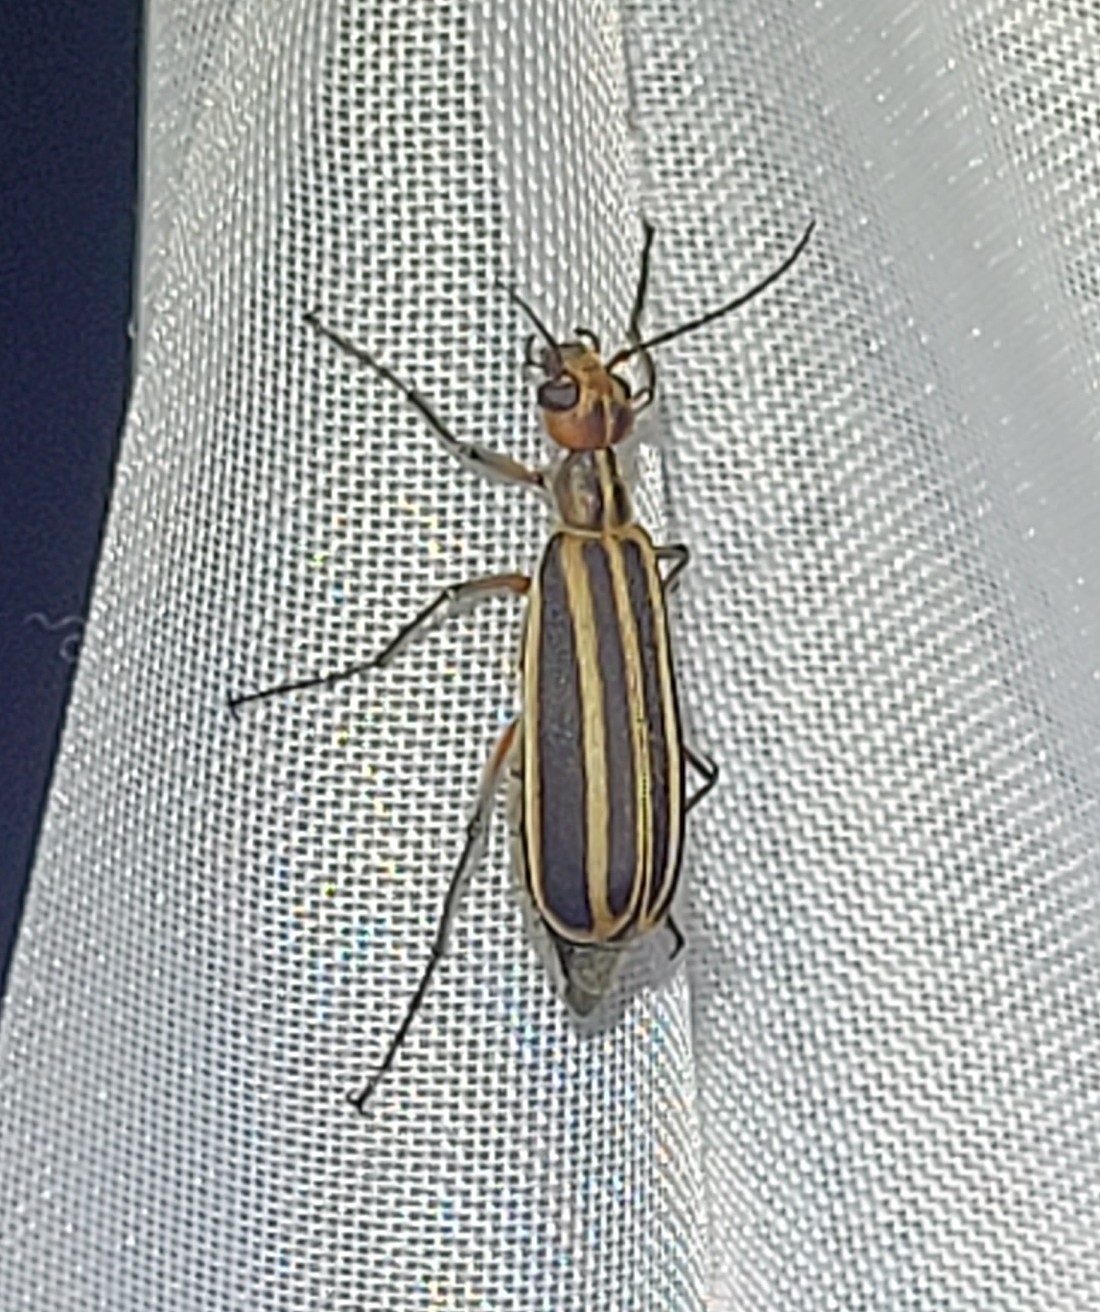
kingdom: Animalia
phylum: Arthropoda
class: Insecta
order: Coleoptera
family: Meloidae
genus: Epicauta
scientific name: Epicauta vittata
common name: Old-fashioned potato beetle
